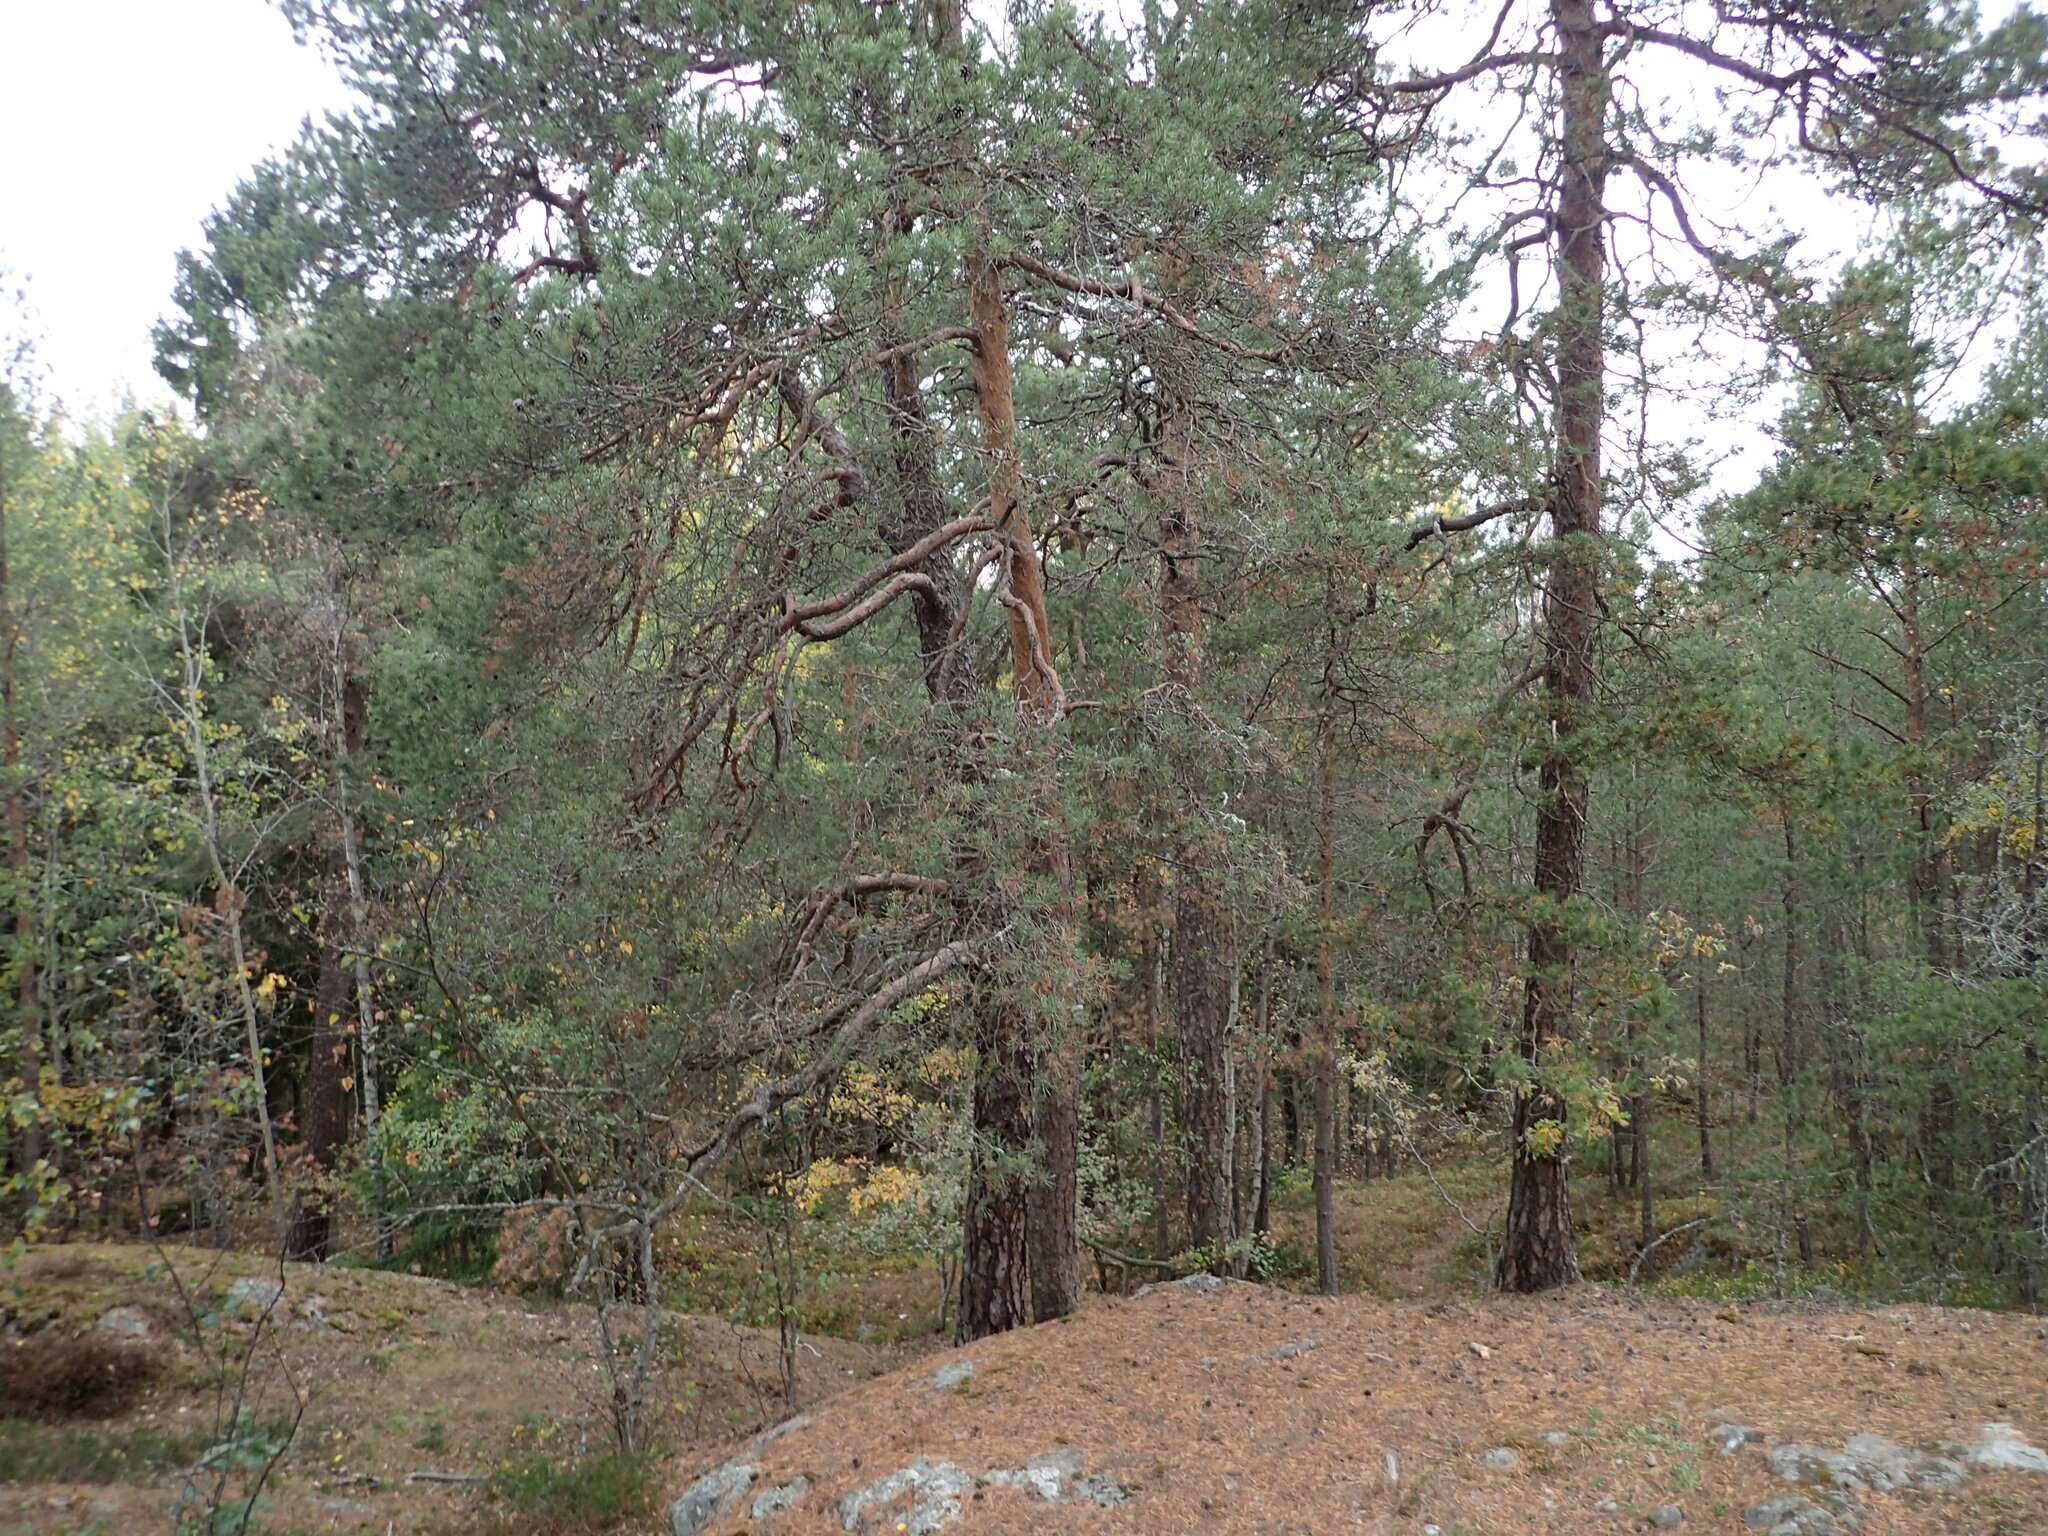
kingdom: Plantae
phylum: Tracheophyta
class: Pinopsida
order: Pinales
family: Pinaceae
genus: Pinus
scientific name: Pinus sylvestris
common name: Scots pine
